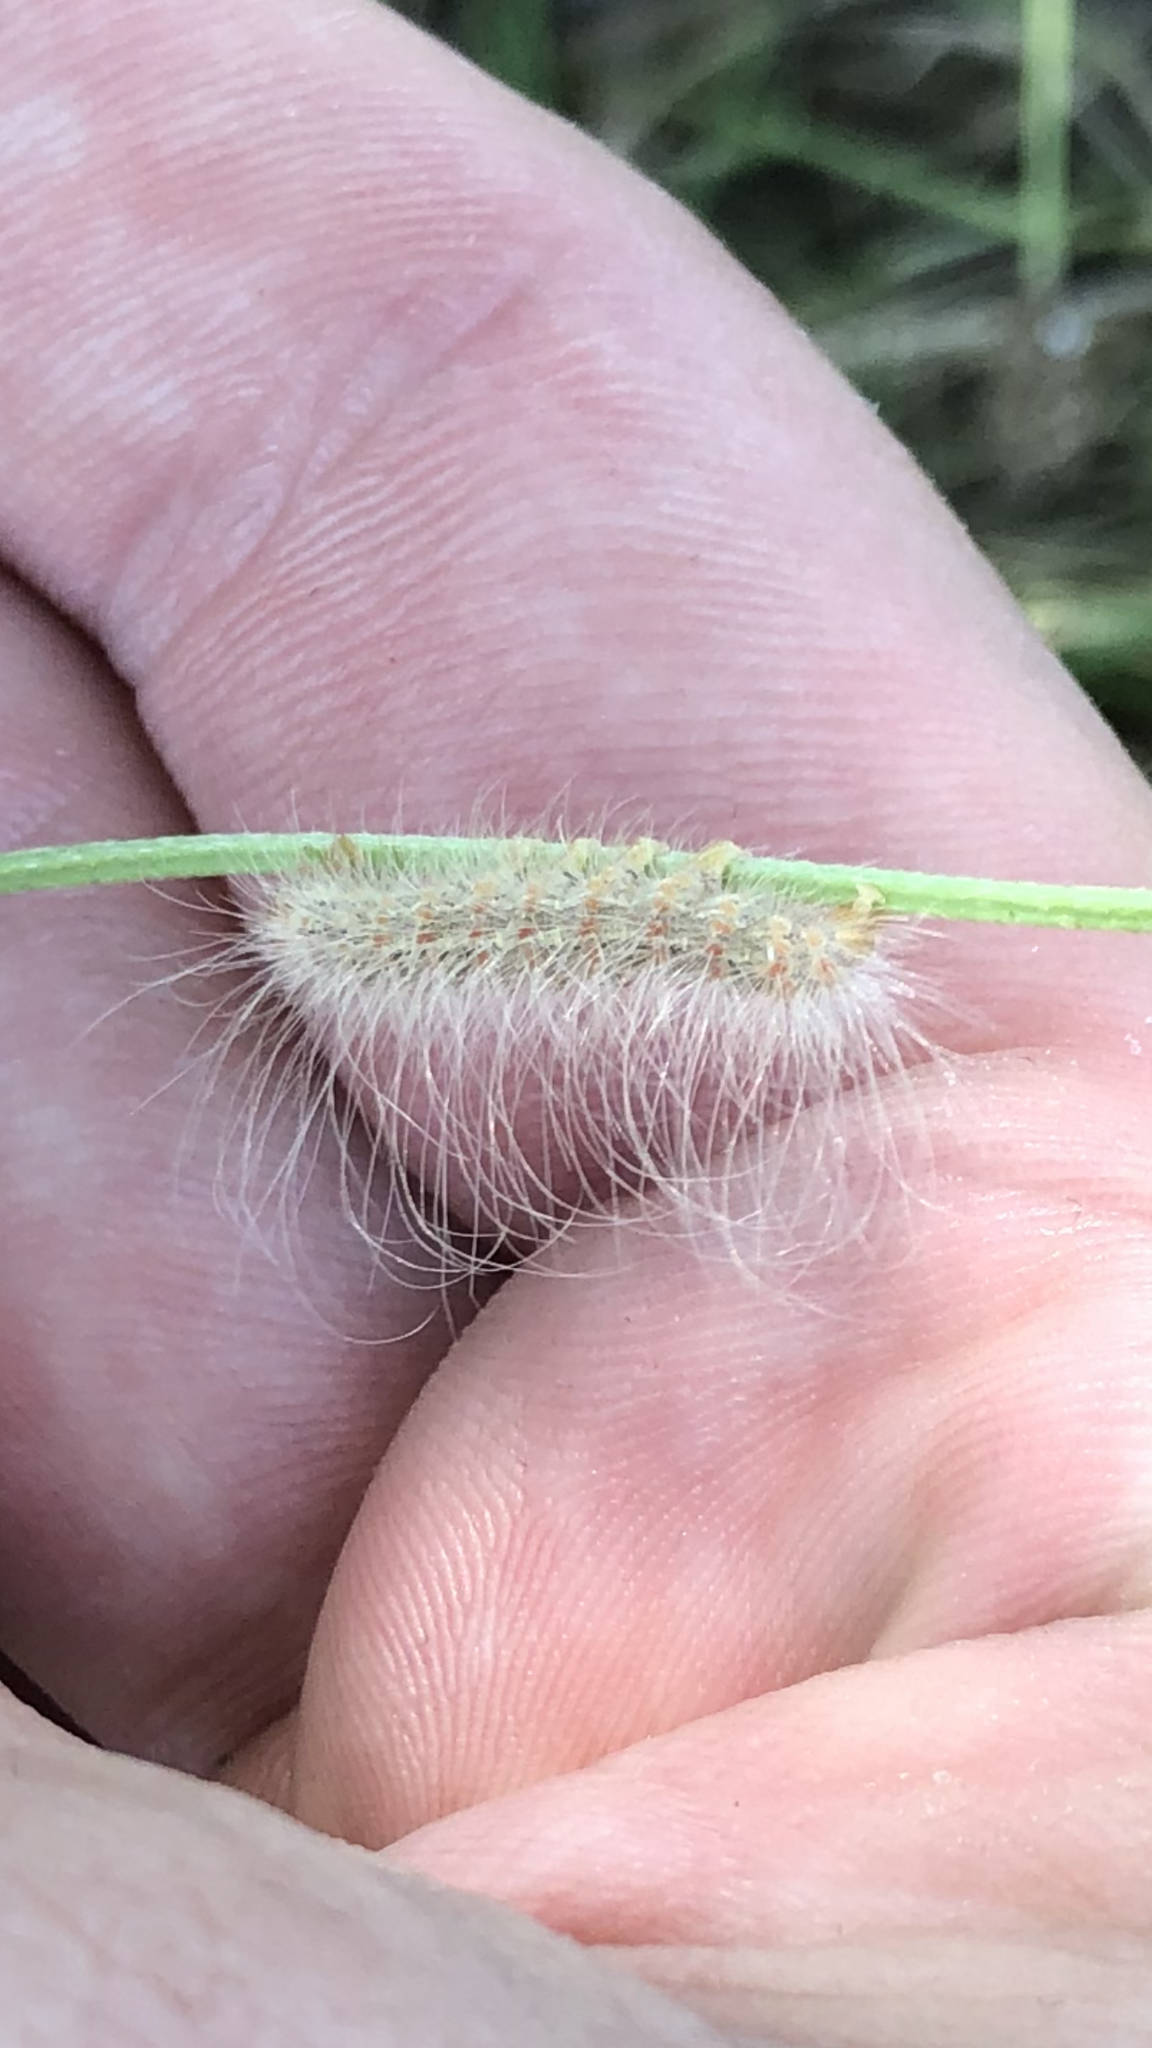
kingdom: Animalia
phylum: Arthropoda
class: Insecta
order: Lepidoptera
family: Erebidae
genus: Hyphantria
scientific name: Hyphantria cunea
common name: American white moth
